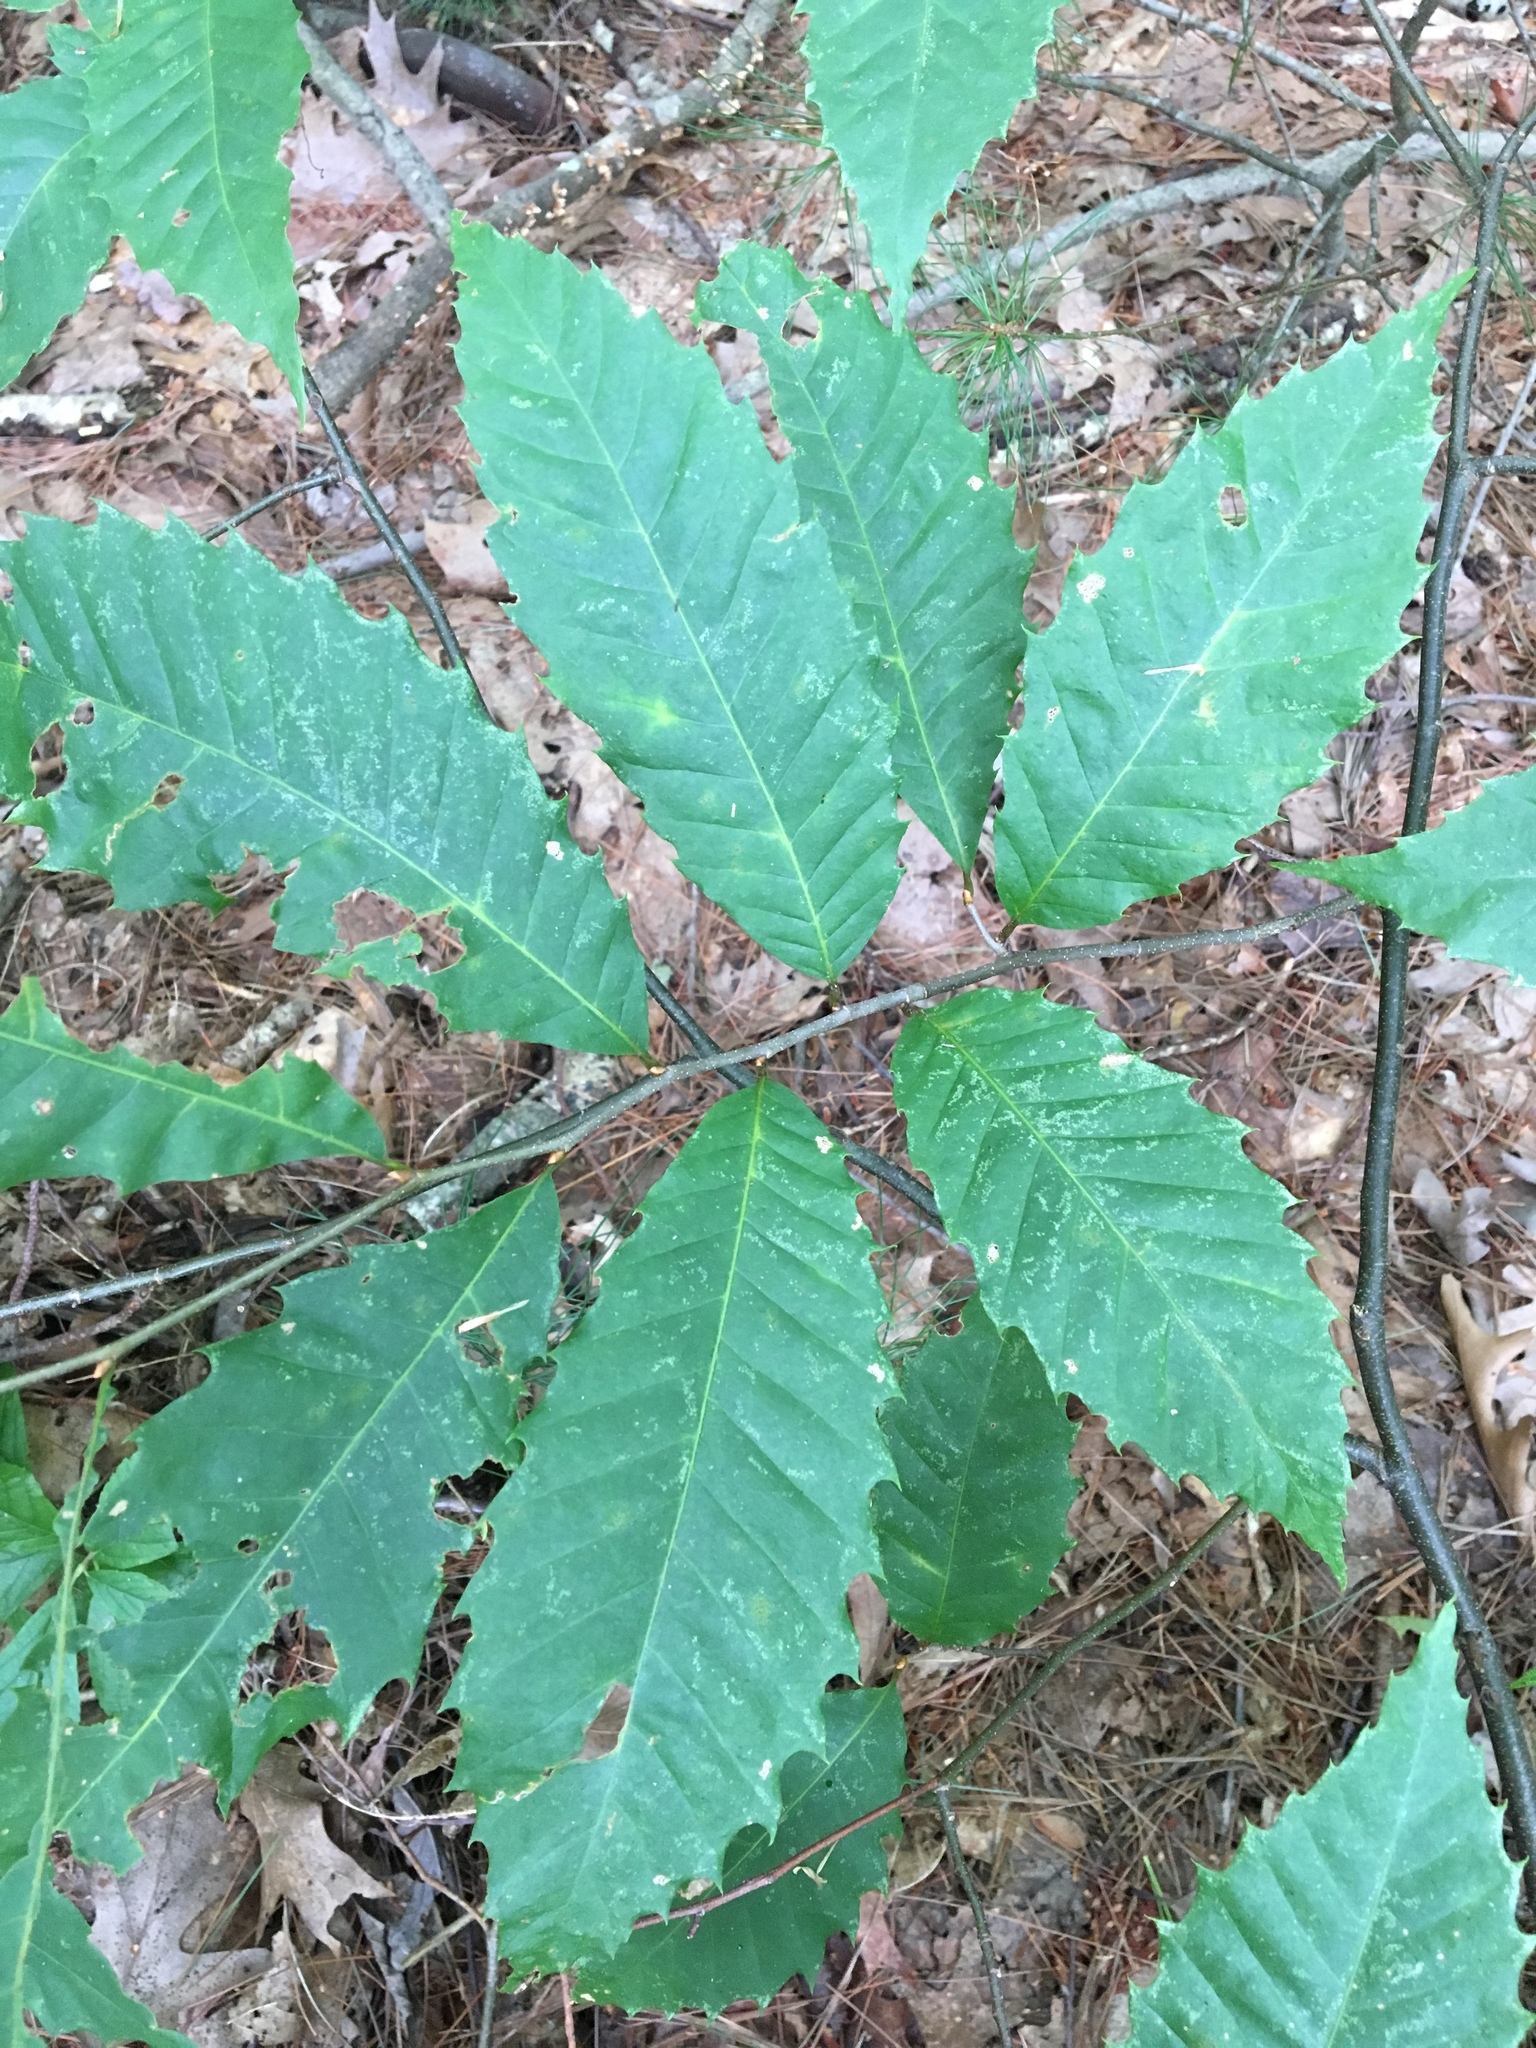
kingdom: Plantae
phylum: Tracheophyta
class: Magnoliopsida
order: Fagales
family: Fagaceae
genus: Castanea
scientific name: Castanea dentata
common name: American chestnut
